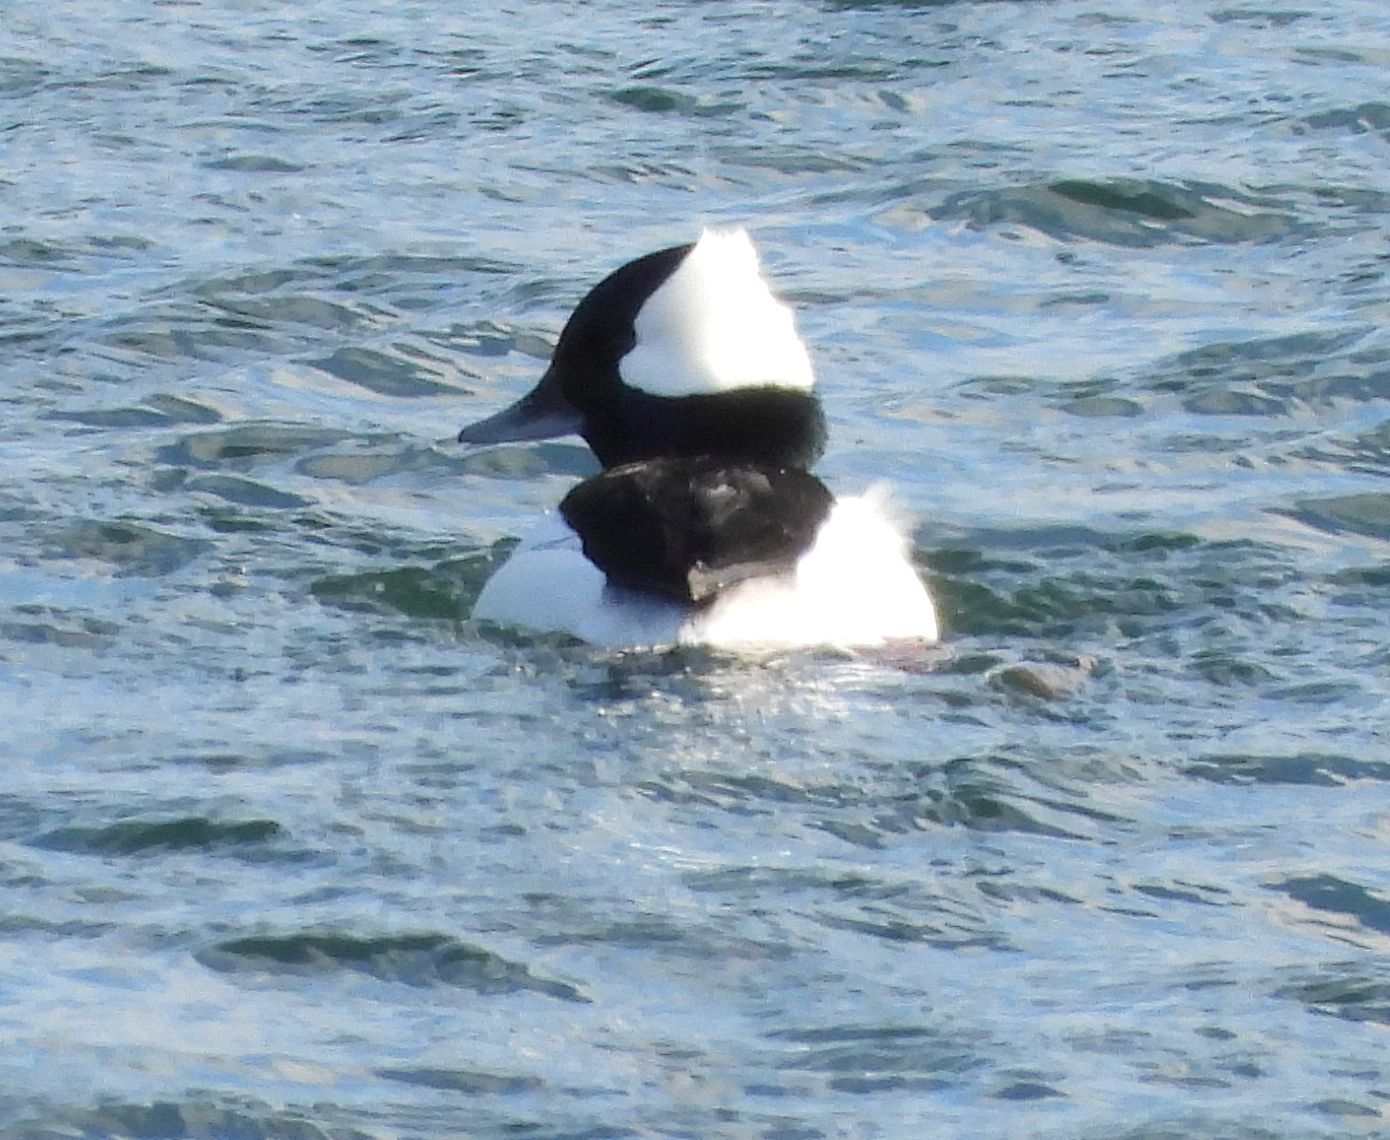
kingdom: Animalia
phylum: Chordata
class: Aves
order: Anseriformes
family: Anatidae
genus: Bucephala
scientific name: Bucephala albeola
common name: Bufflehead
